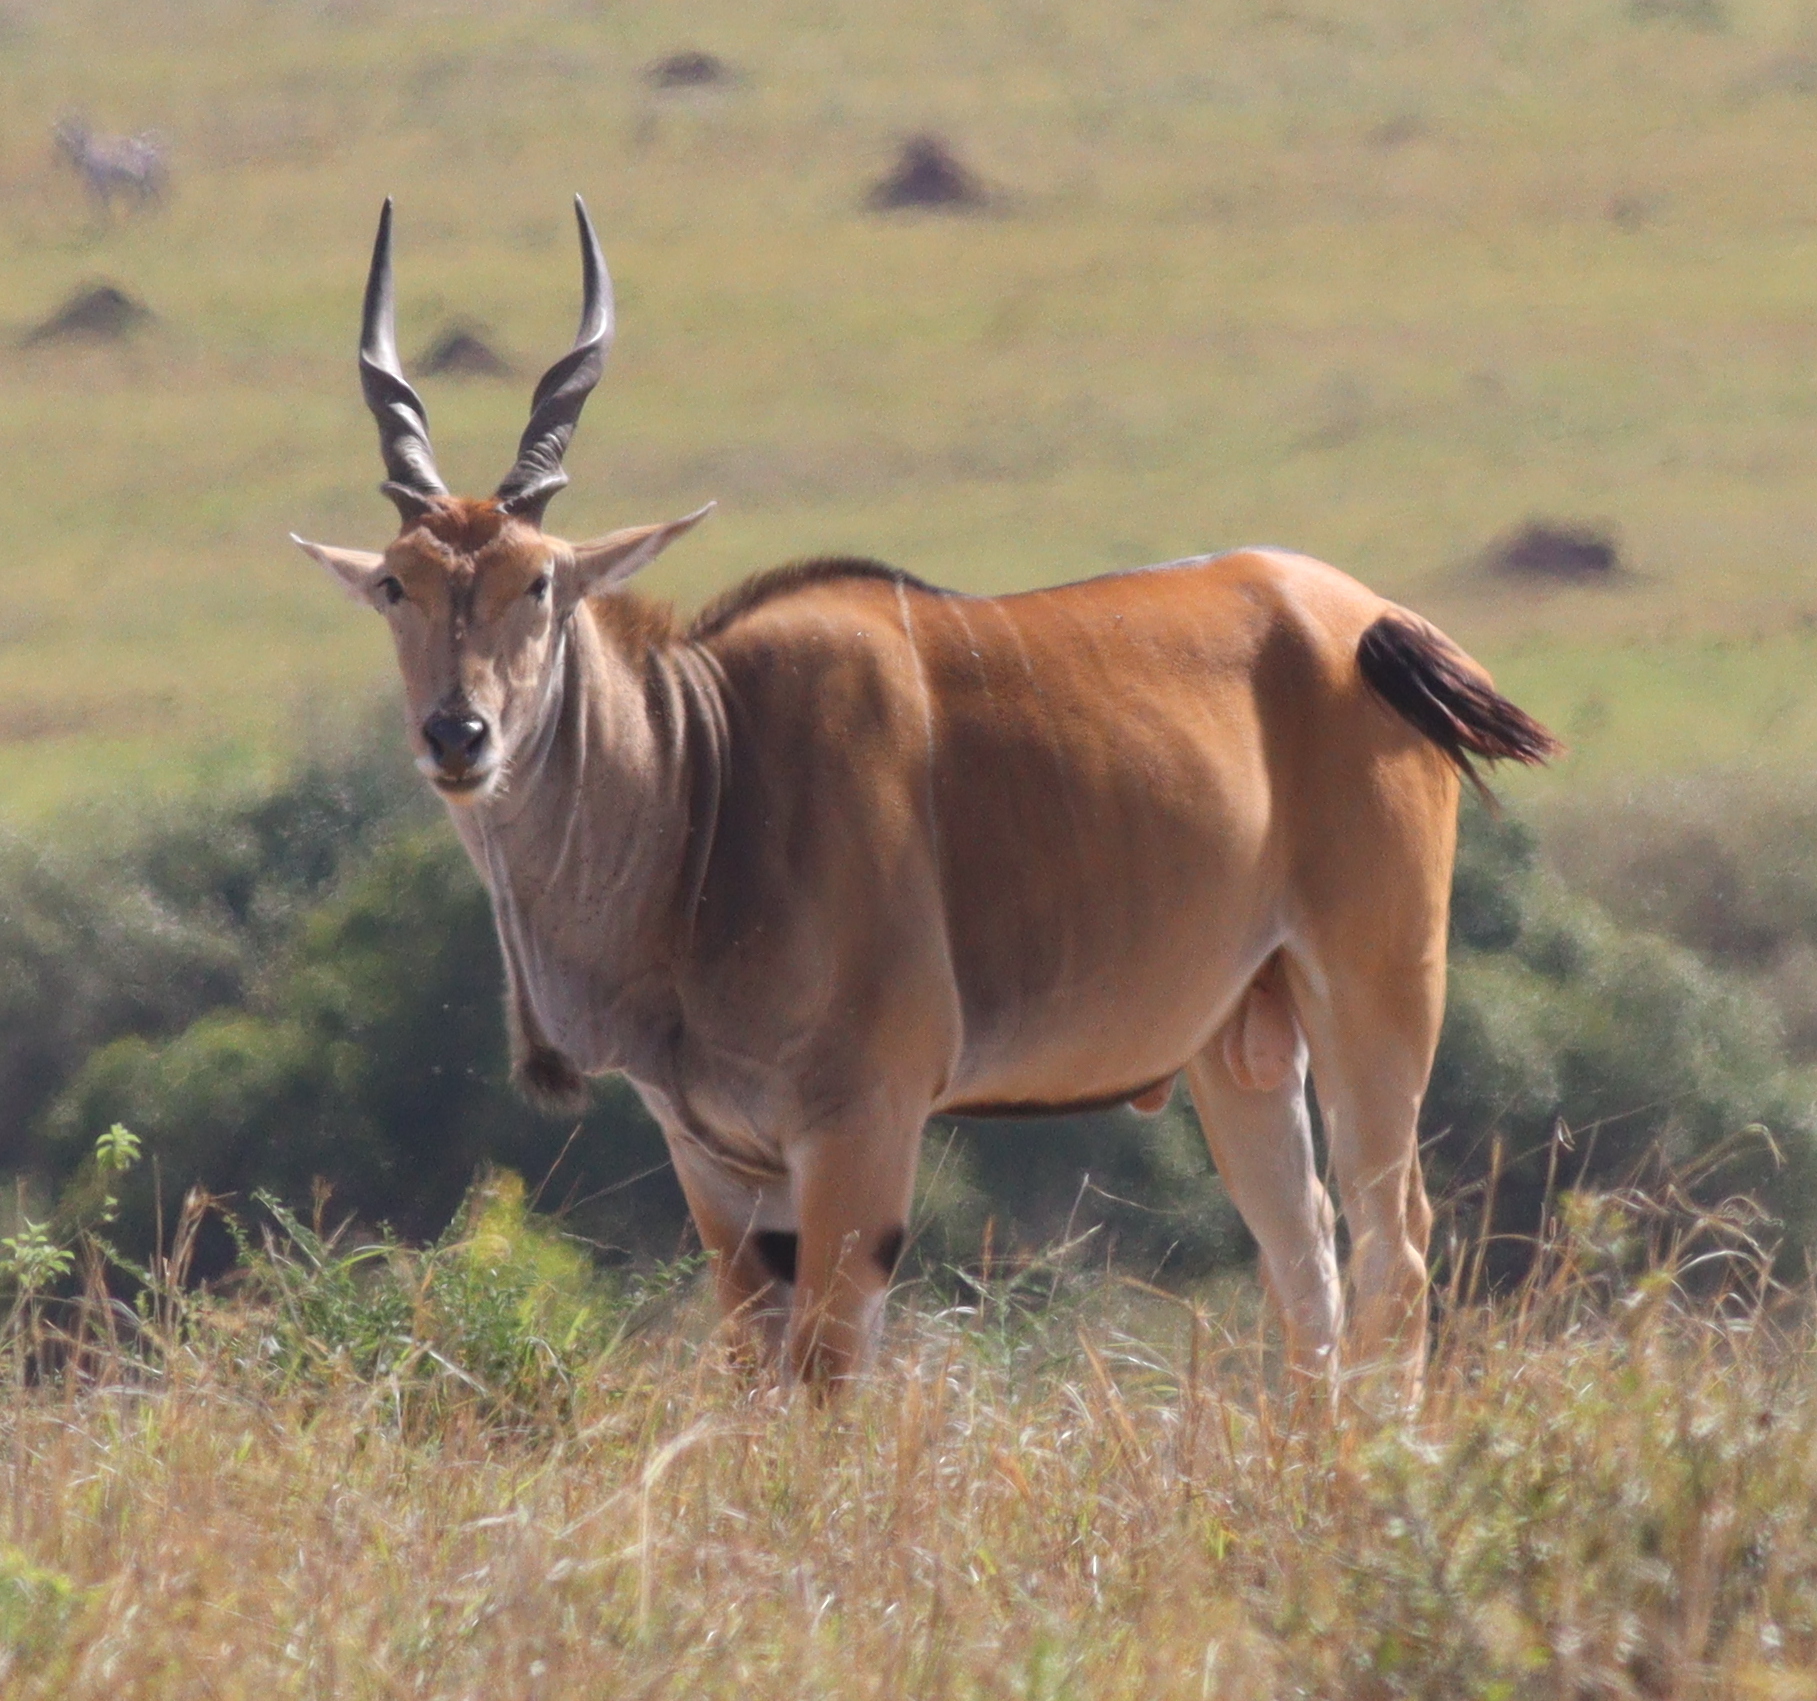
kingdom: Animalia
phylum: Chordata
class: Mammalia
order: Artiodactyla
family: Bovidae
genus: Taurotragus
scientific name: Taurotragus oryx
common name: Common eland
